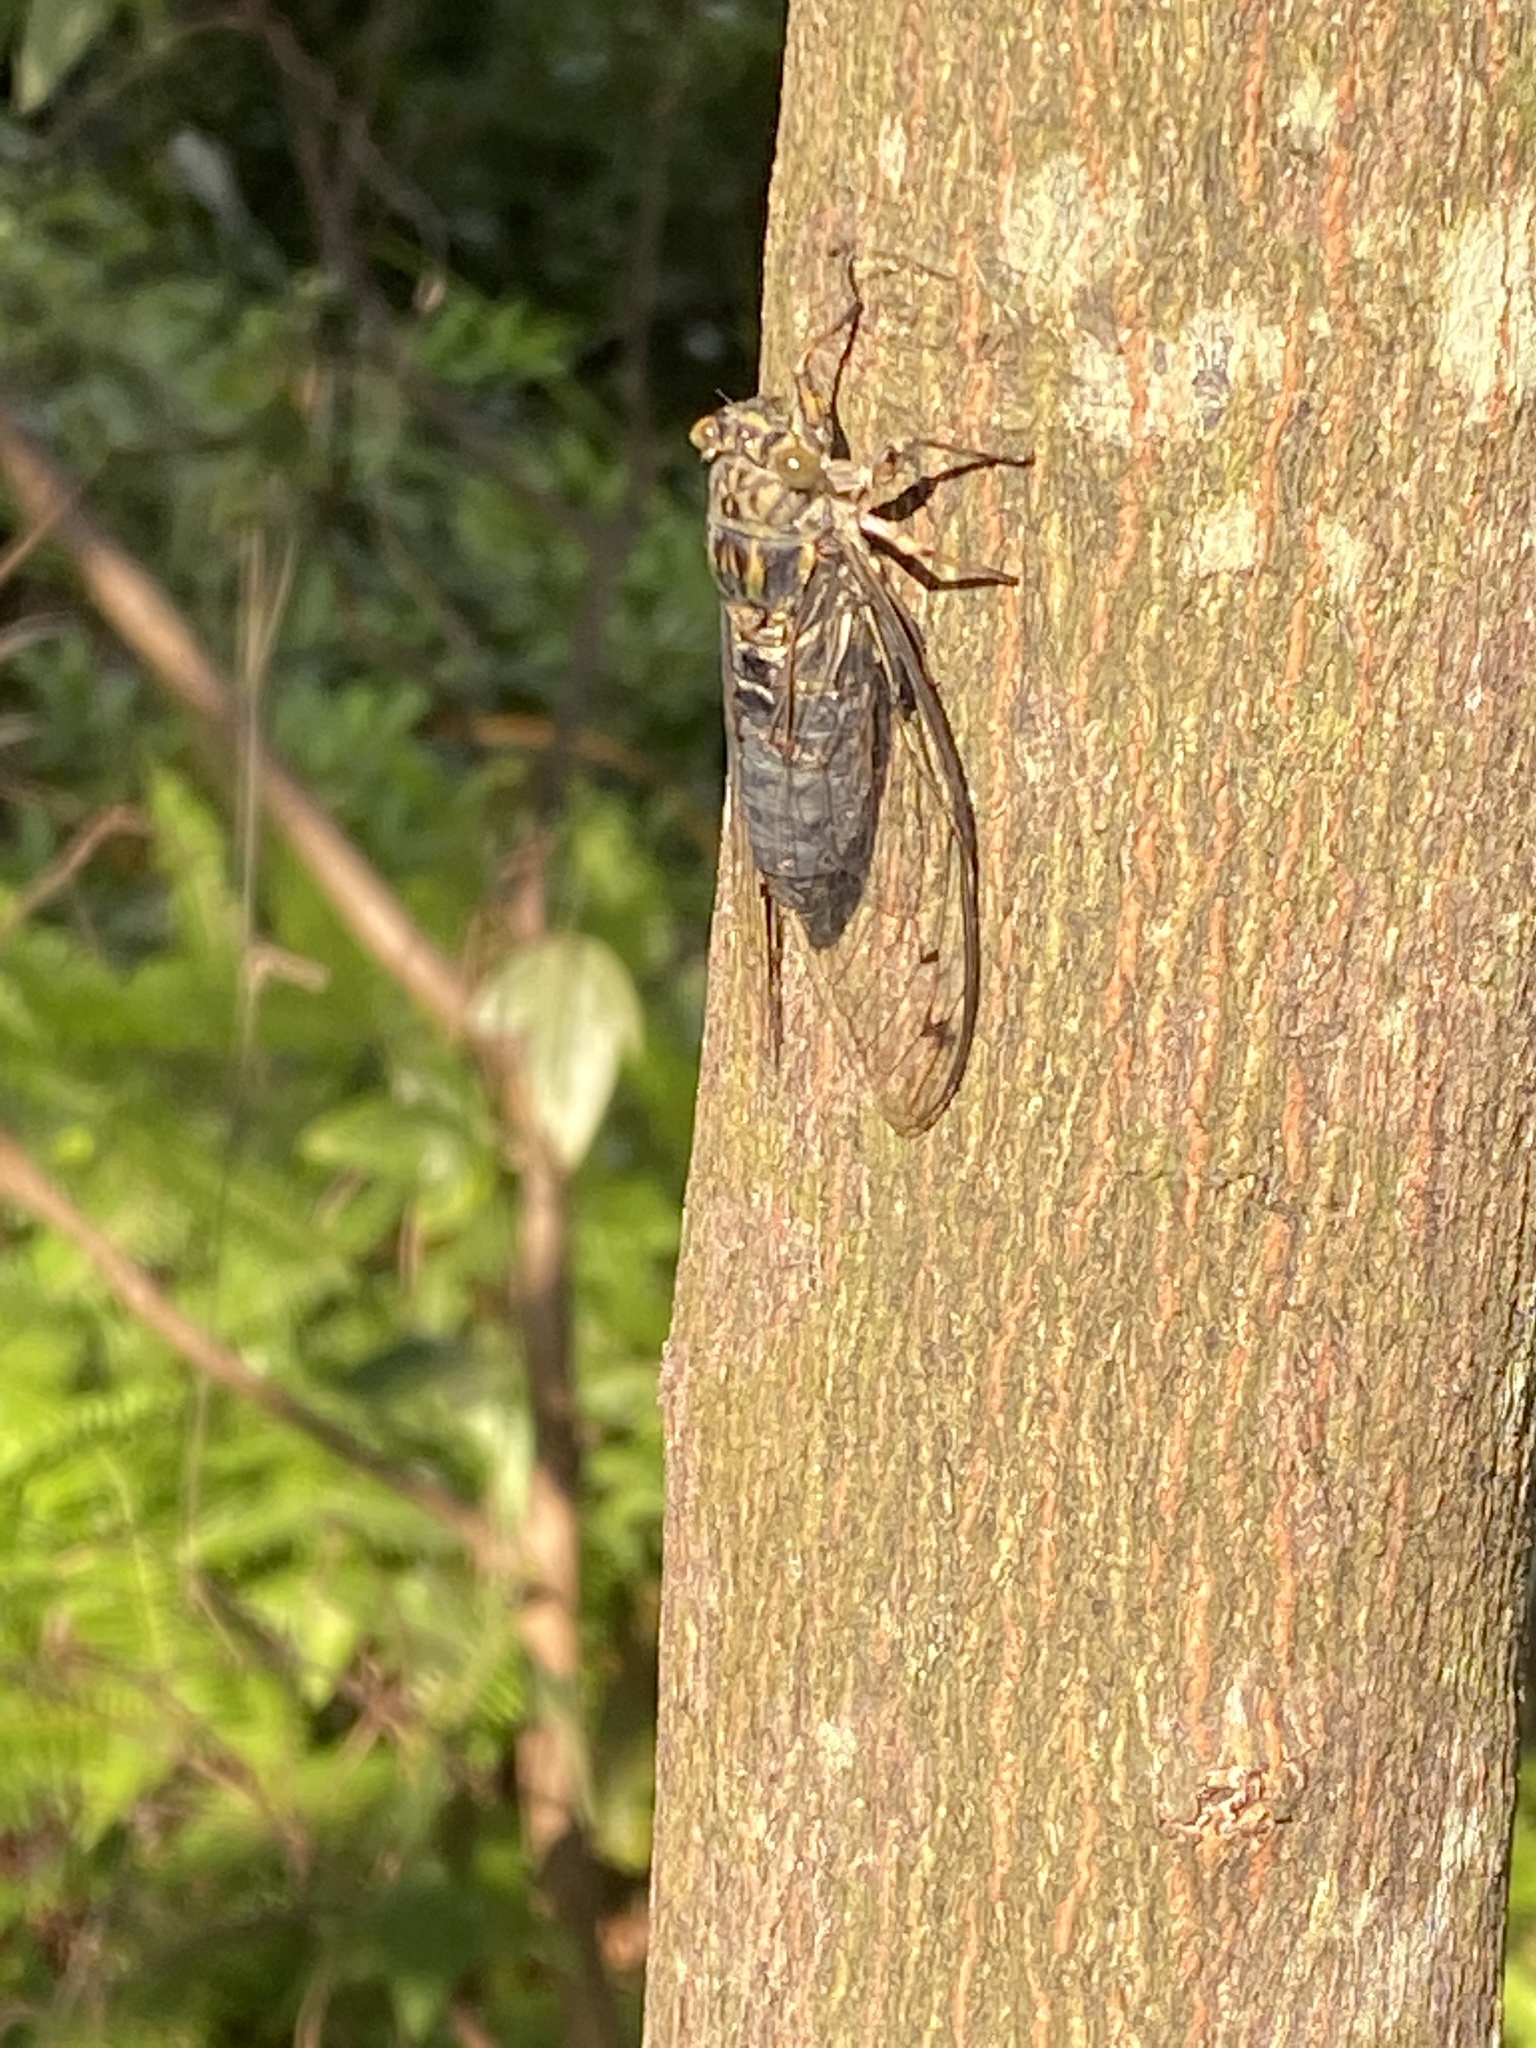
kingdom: Animalia
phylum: Arthropoda
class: Insecta
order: Hemiptera
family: Cicadidae
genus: Meimuna
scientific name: Meimuna opalifera
